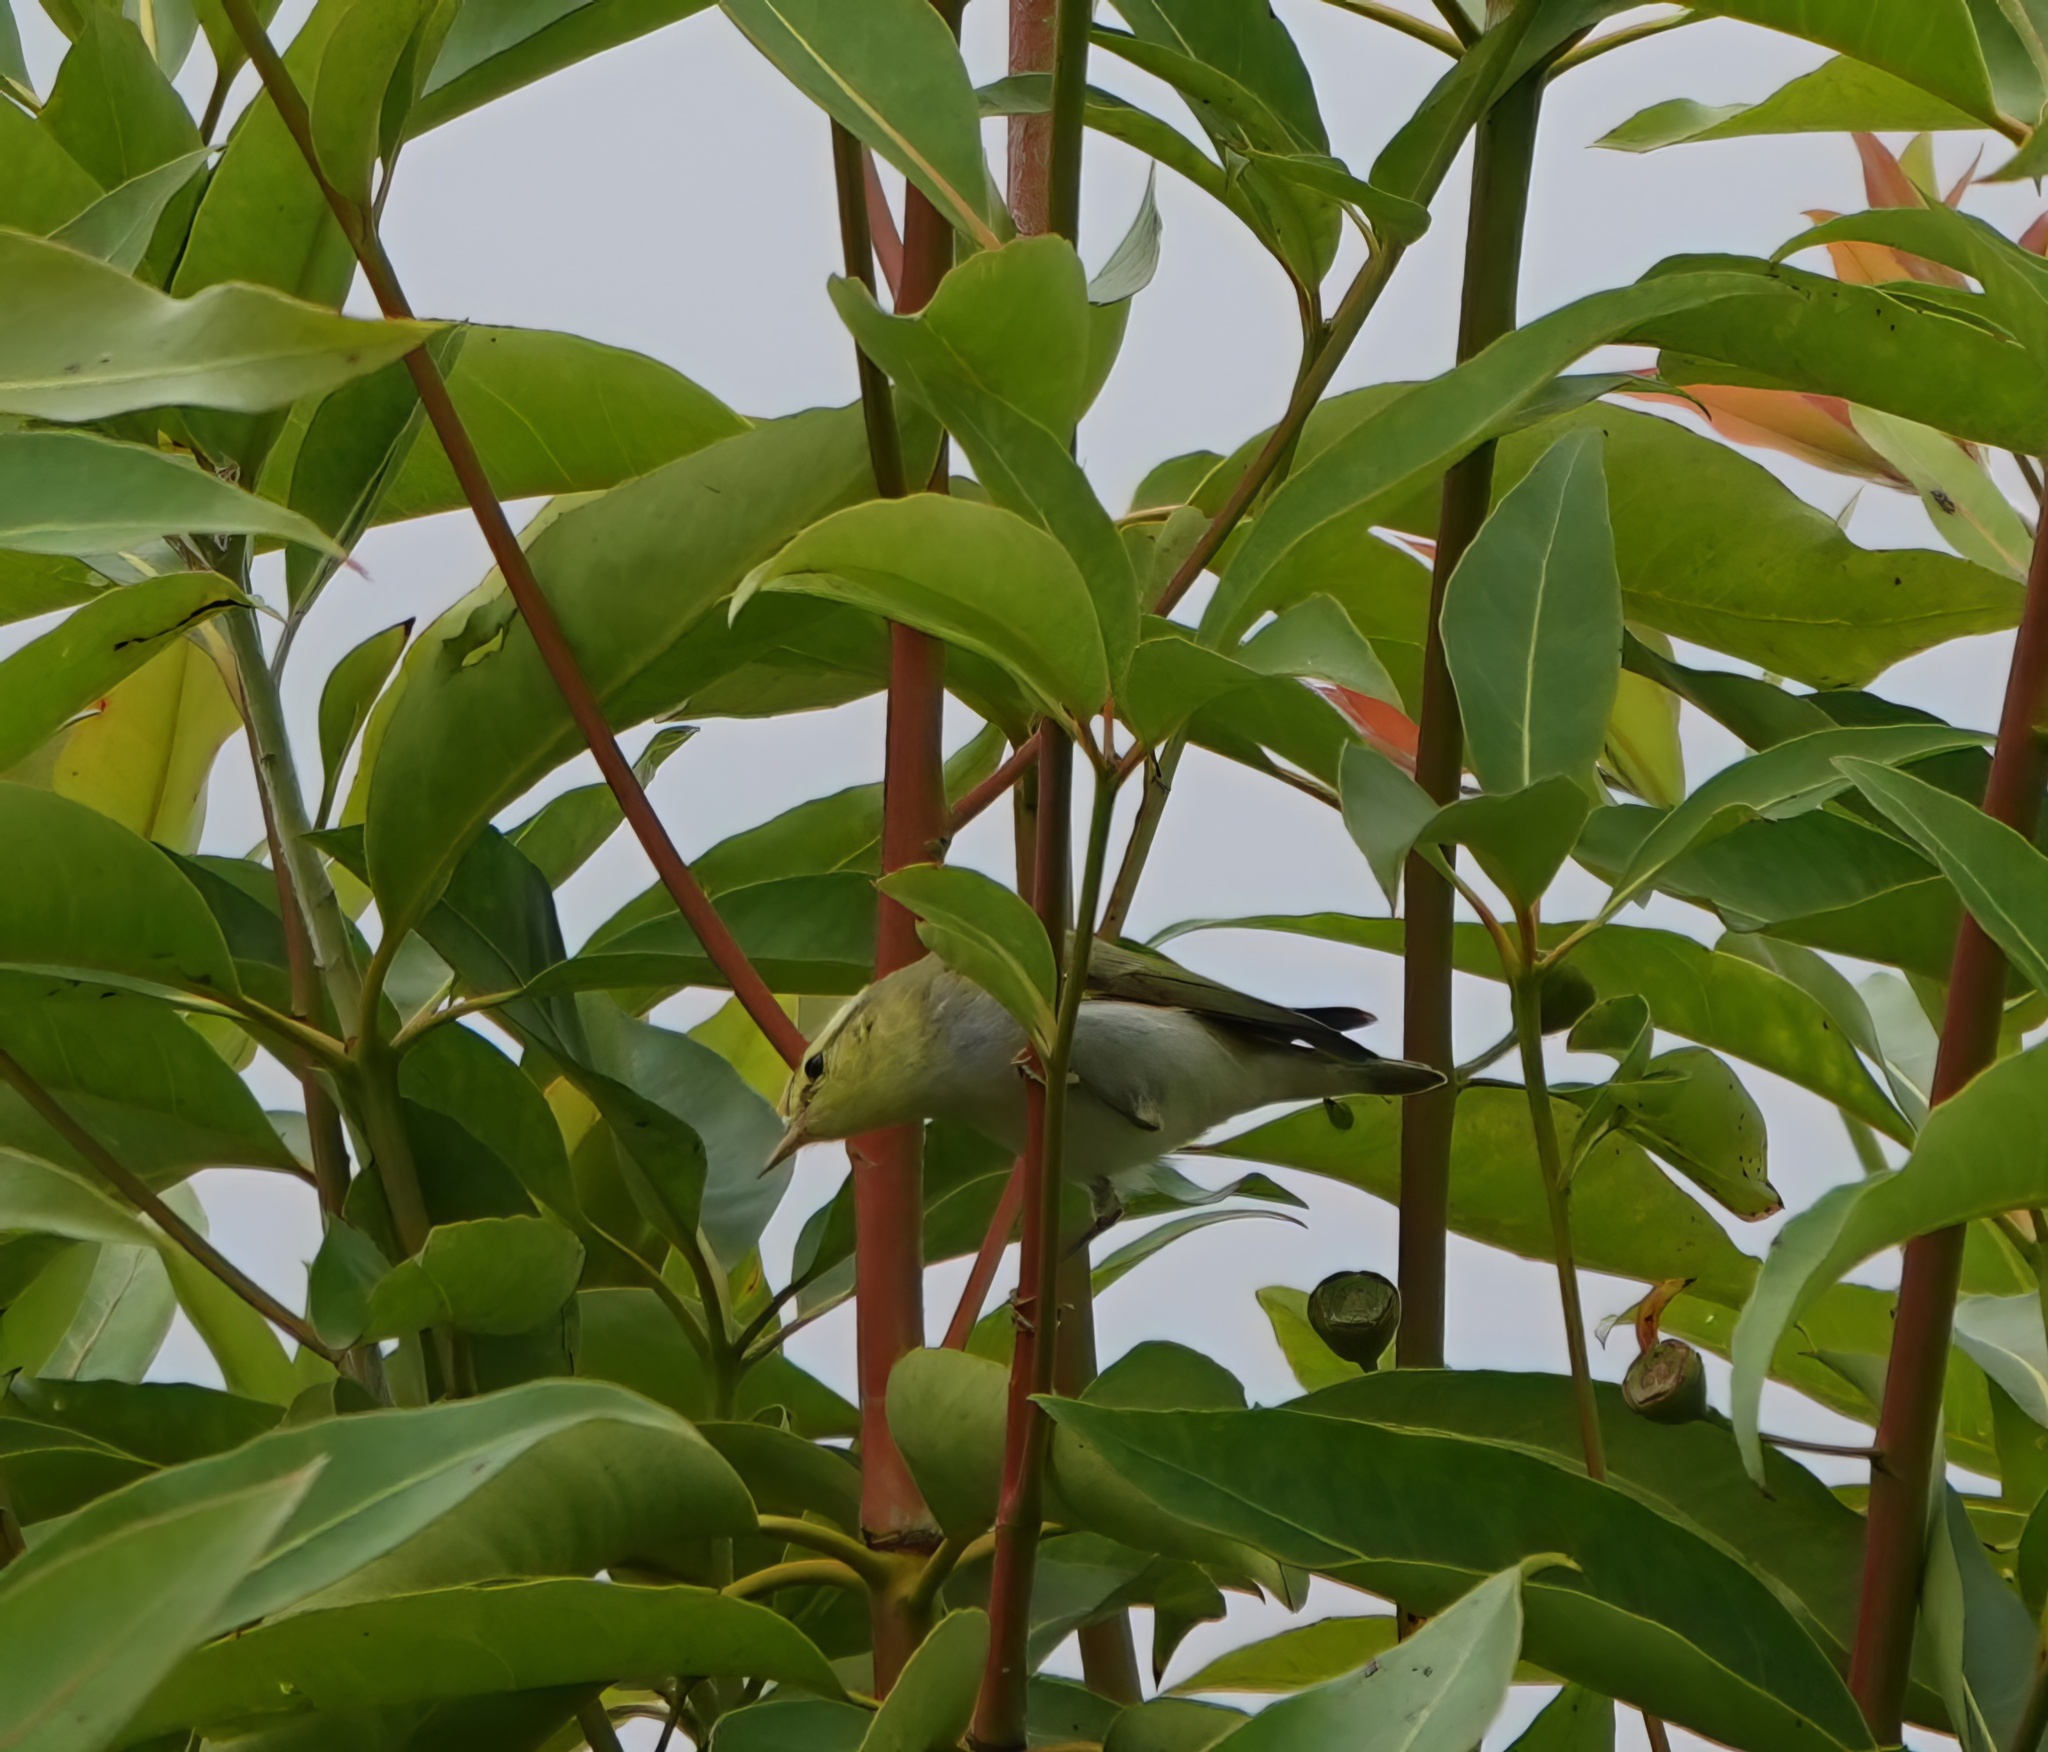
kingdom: Animalia
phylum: Chordata
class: Aves
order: Passeriformes
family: Phylloscopidae
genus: Phylloscopus
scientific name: Phylloscopus sibillatrix
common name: Wood warbler
